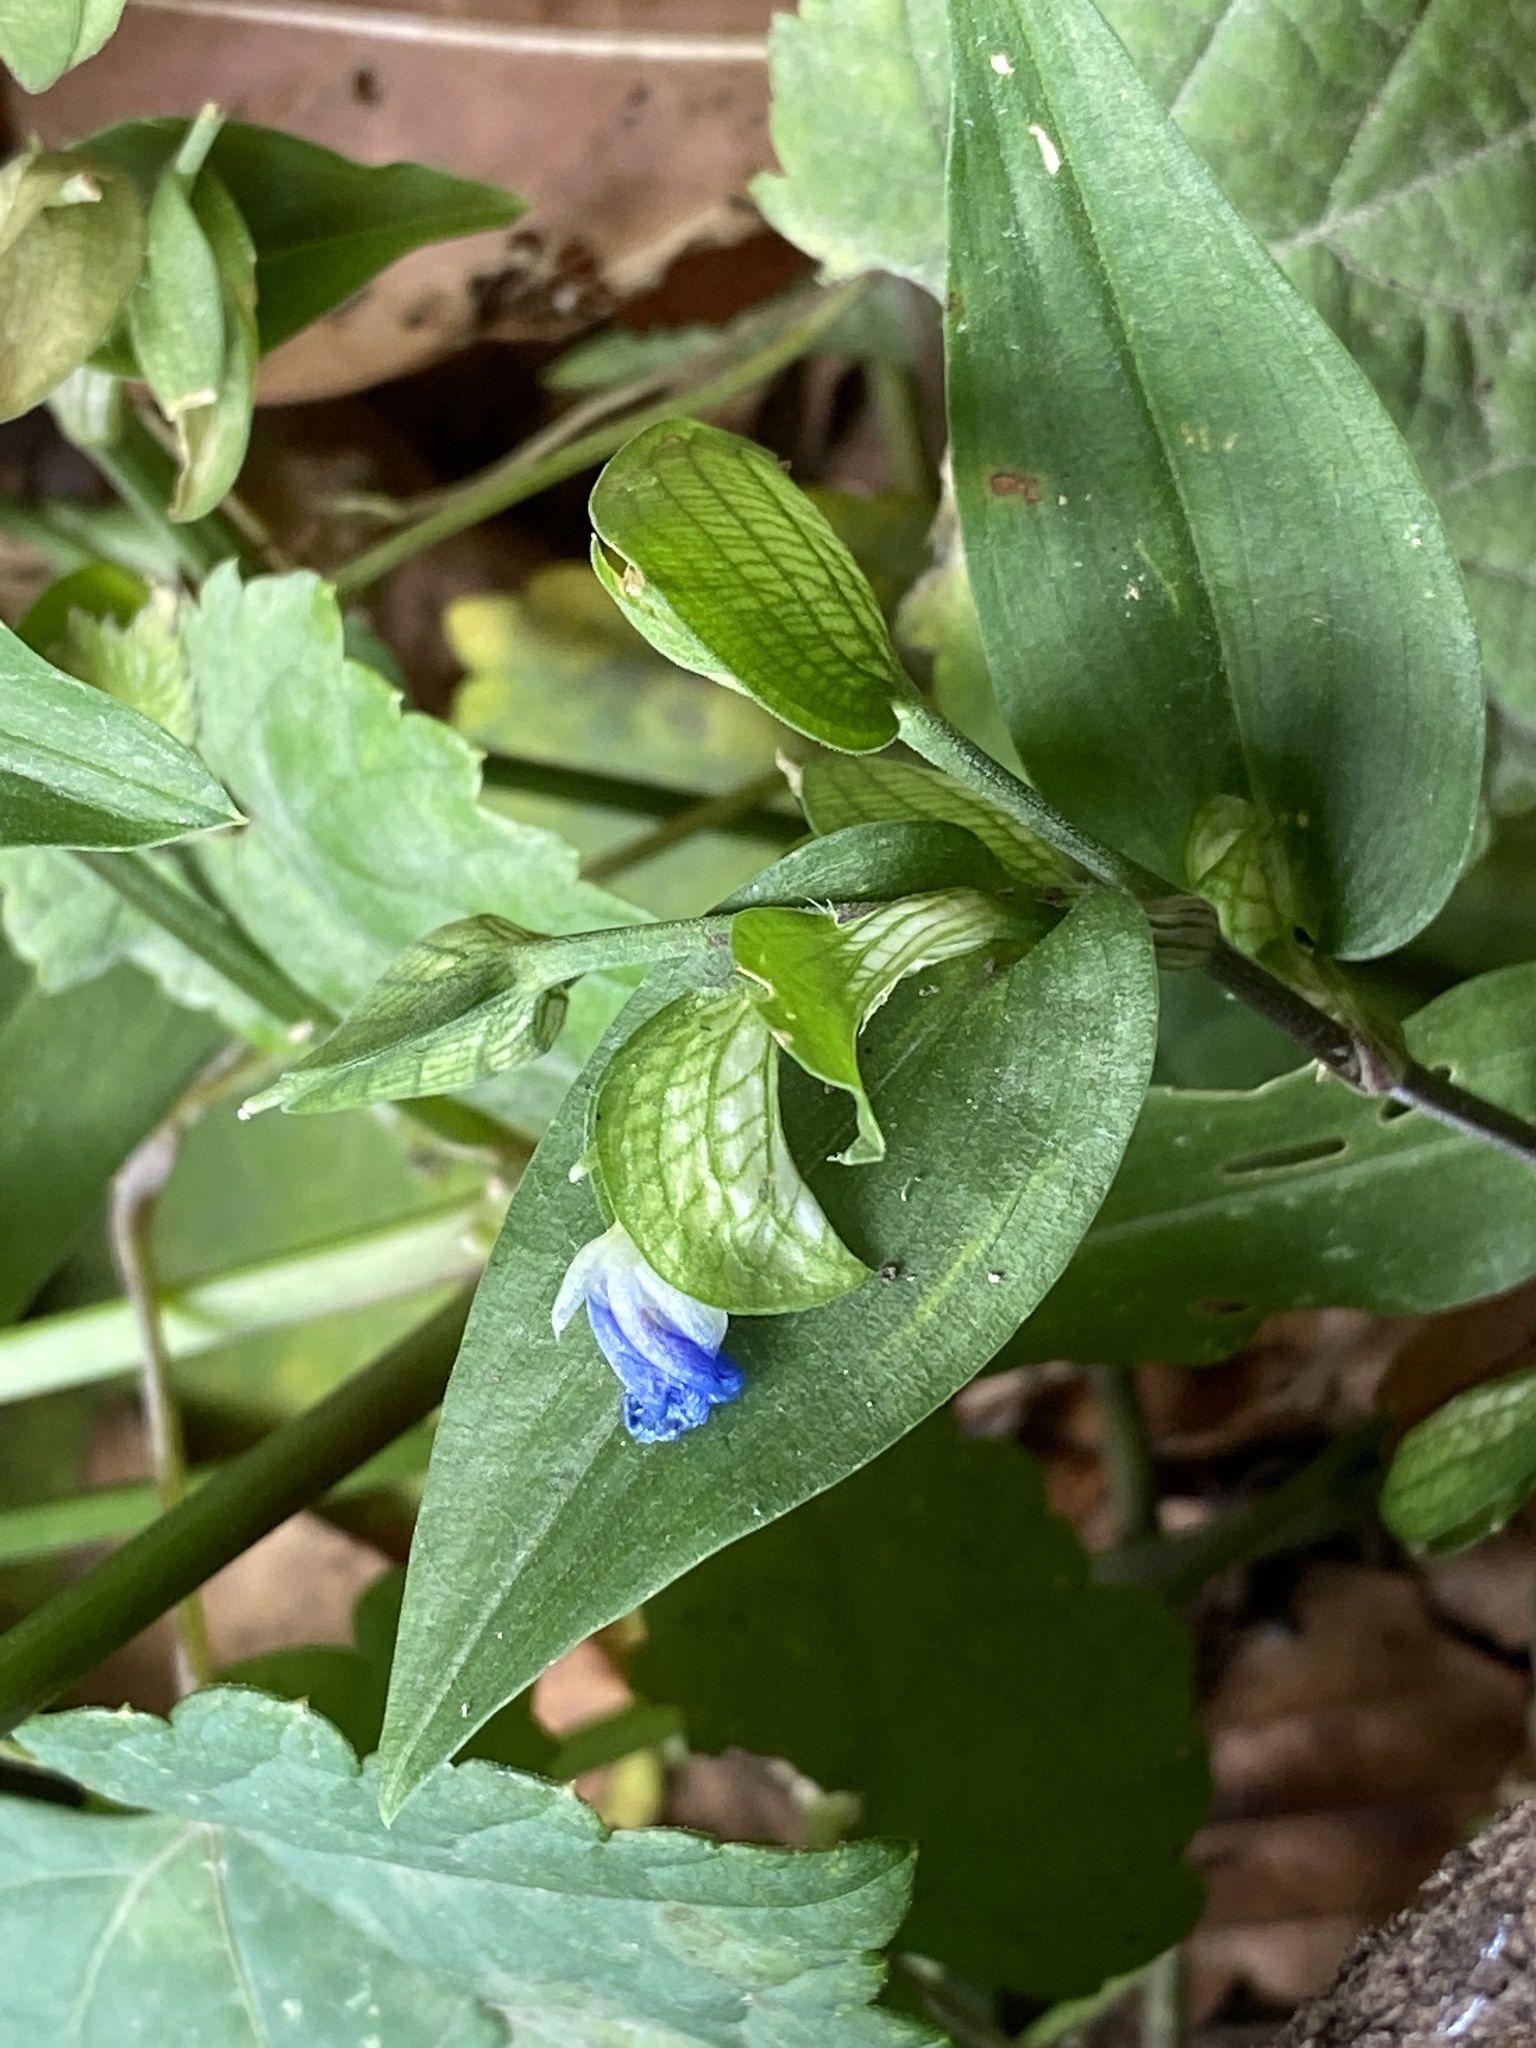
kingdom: Plantae
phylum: Tracheophyta
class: Liliopsida
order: Commelinales
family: Commelinaceae
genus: Commelina
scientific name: Commelina communis
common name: Asiatic dayflower
